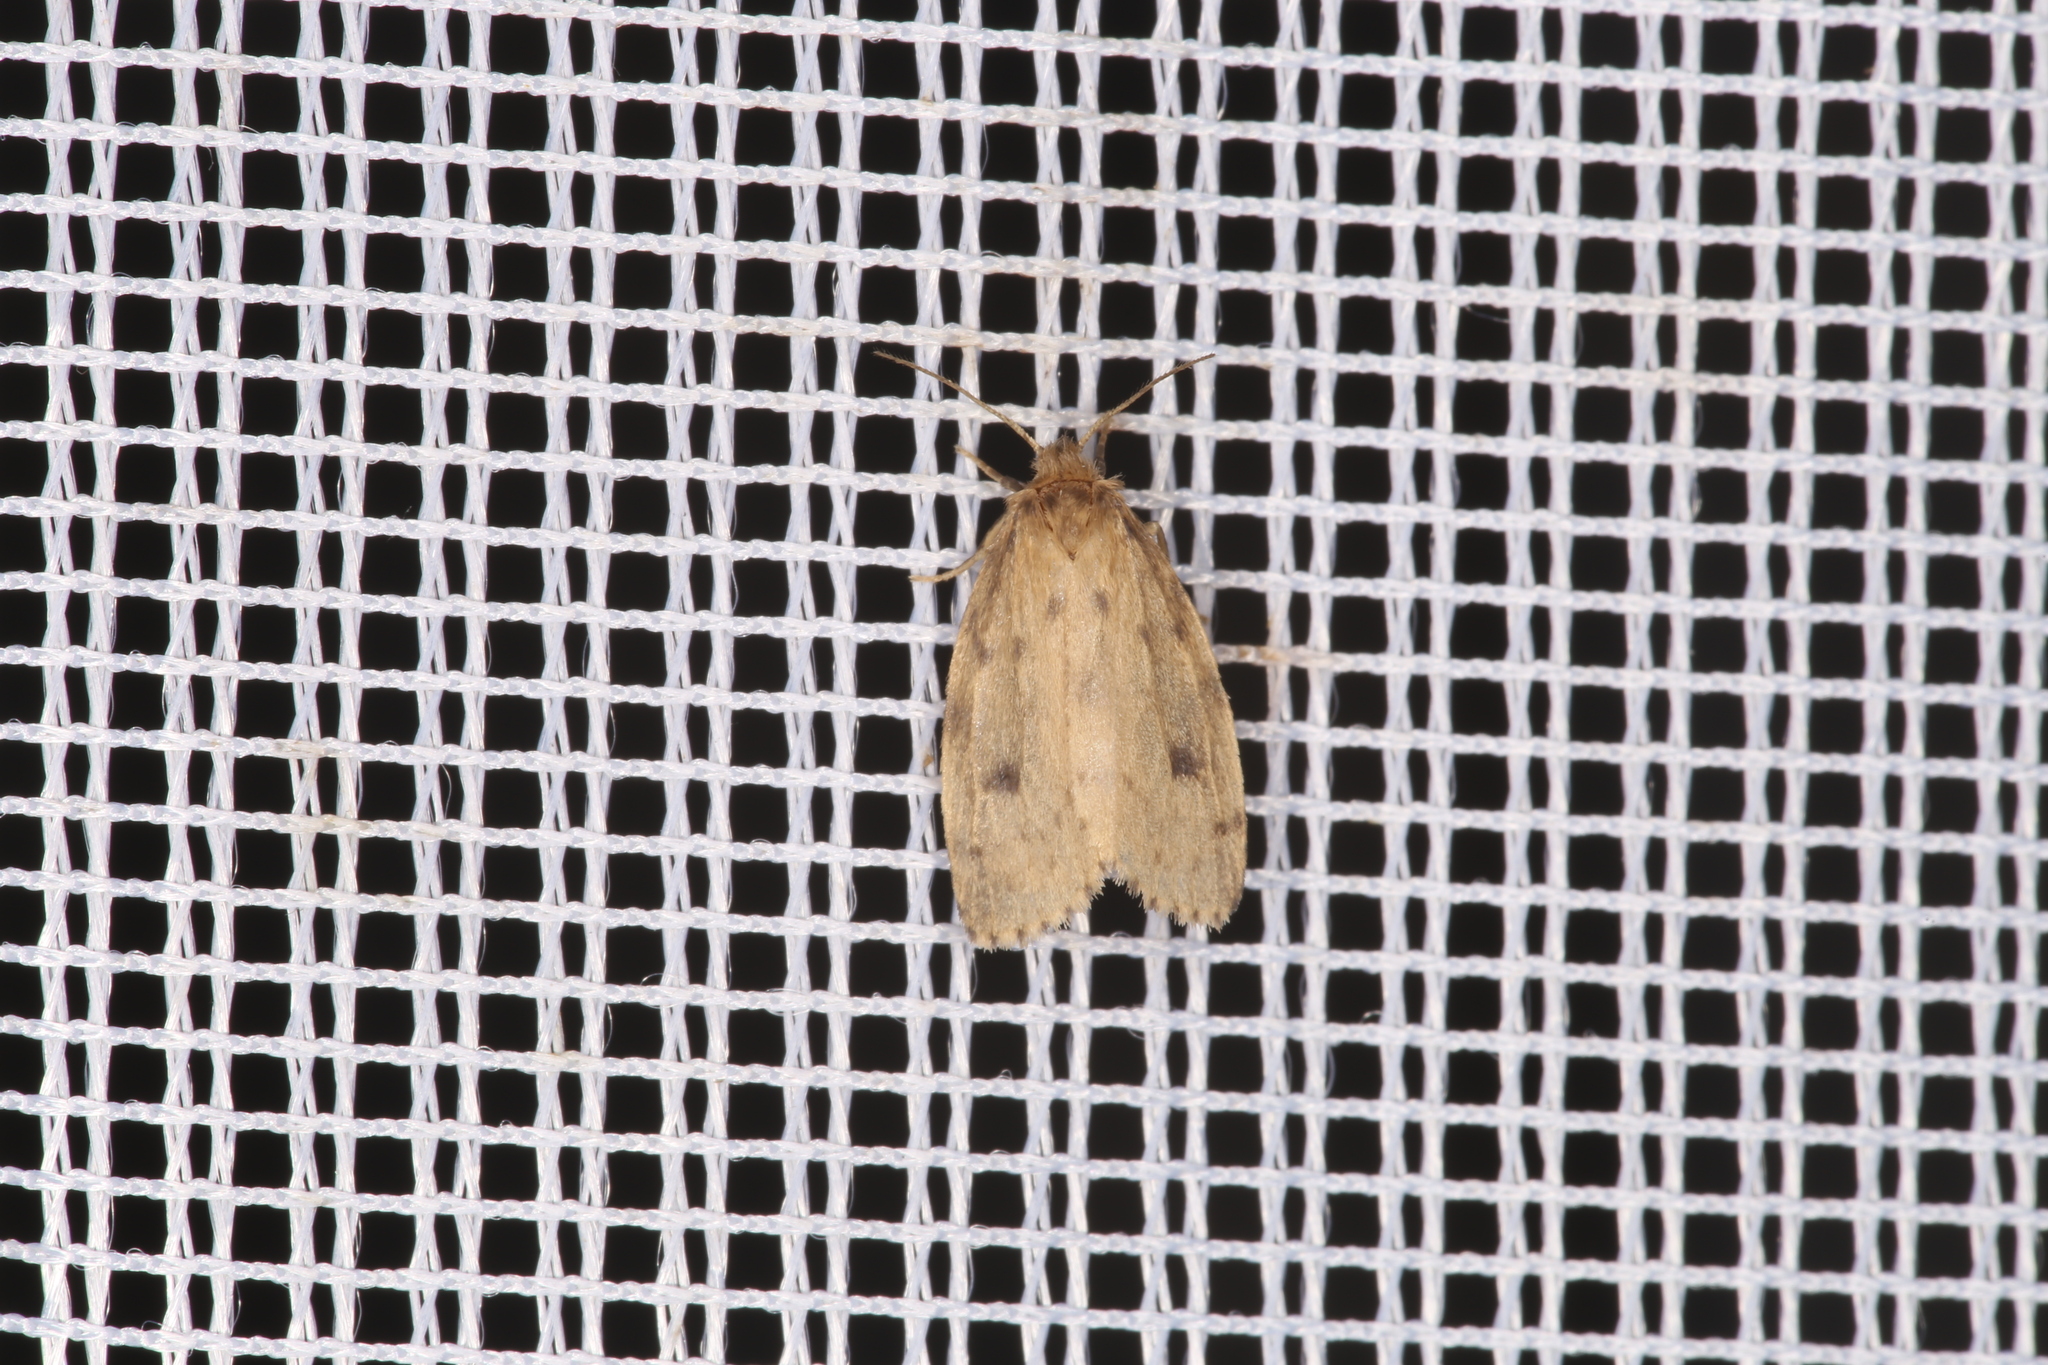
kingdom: Animalia
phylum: Arthropoda
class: Insecta
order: Lepidoptera
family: Erebidae
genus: Thumatha
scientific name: Thumatha senex
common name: Round-winged muslin
